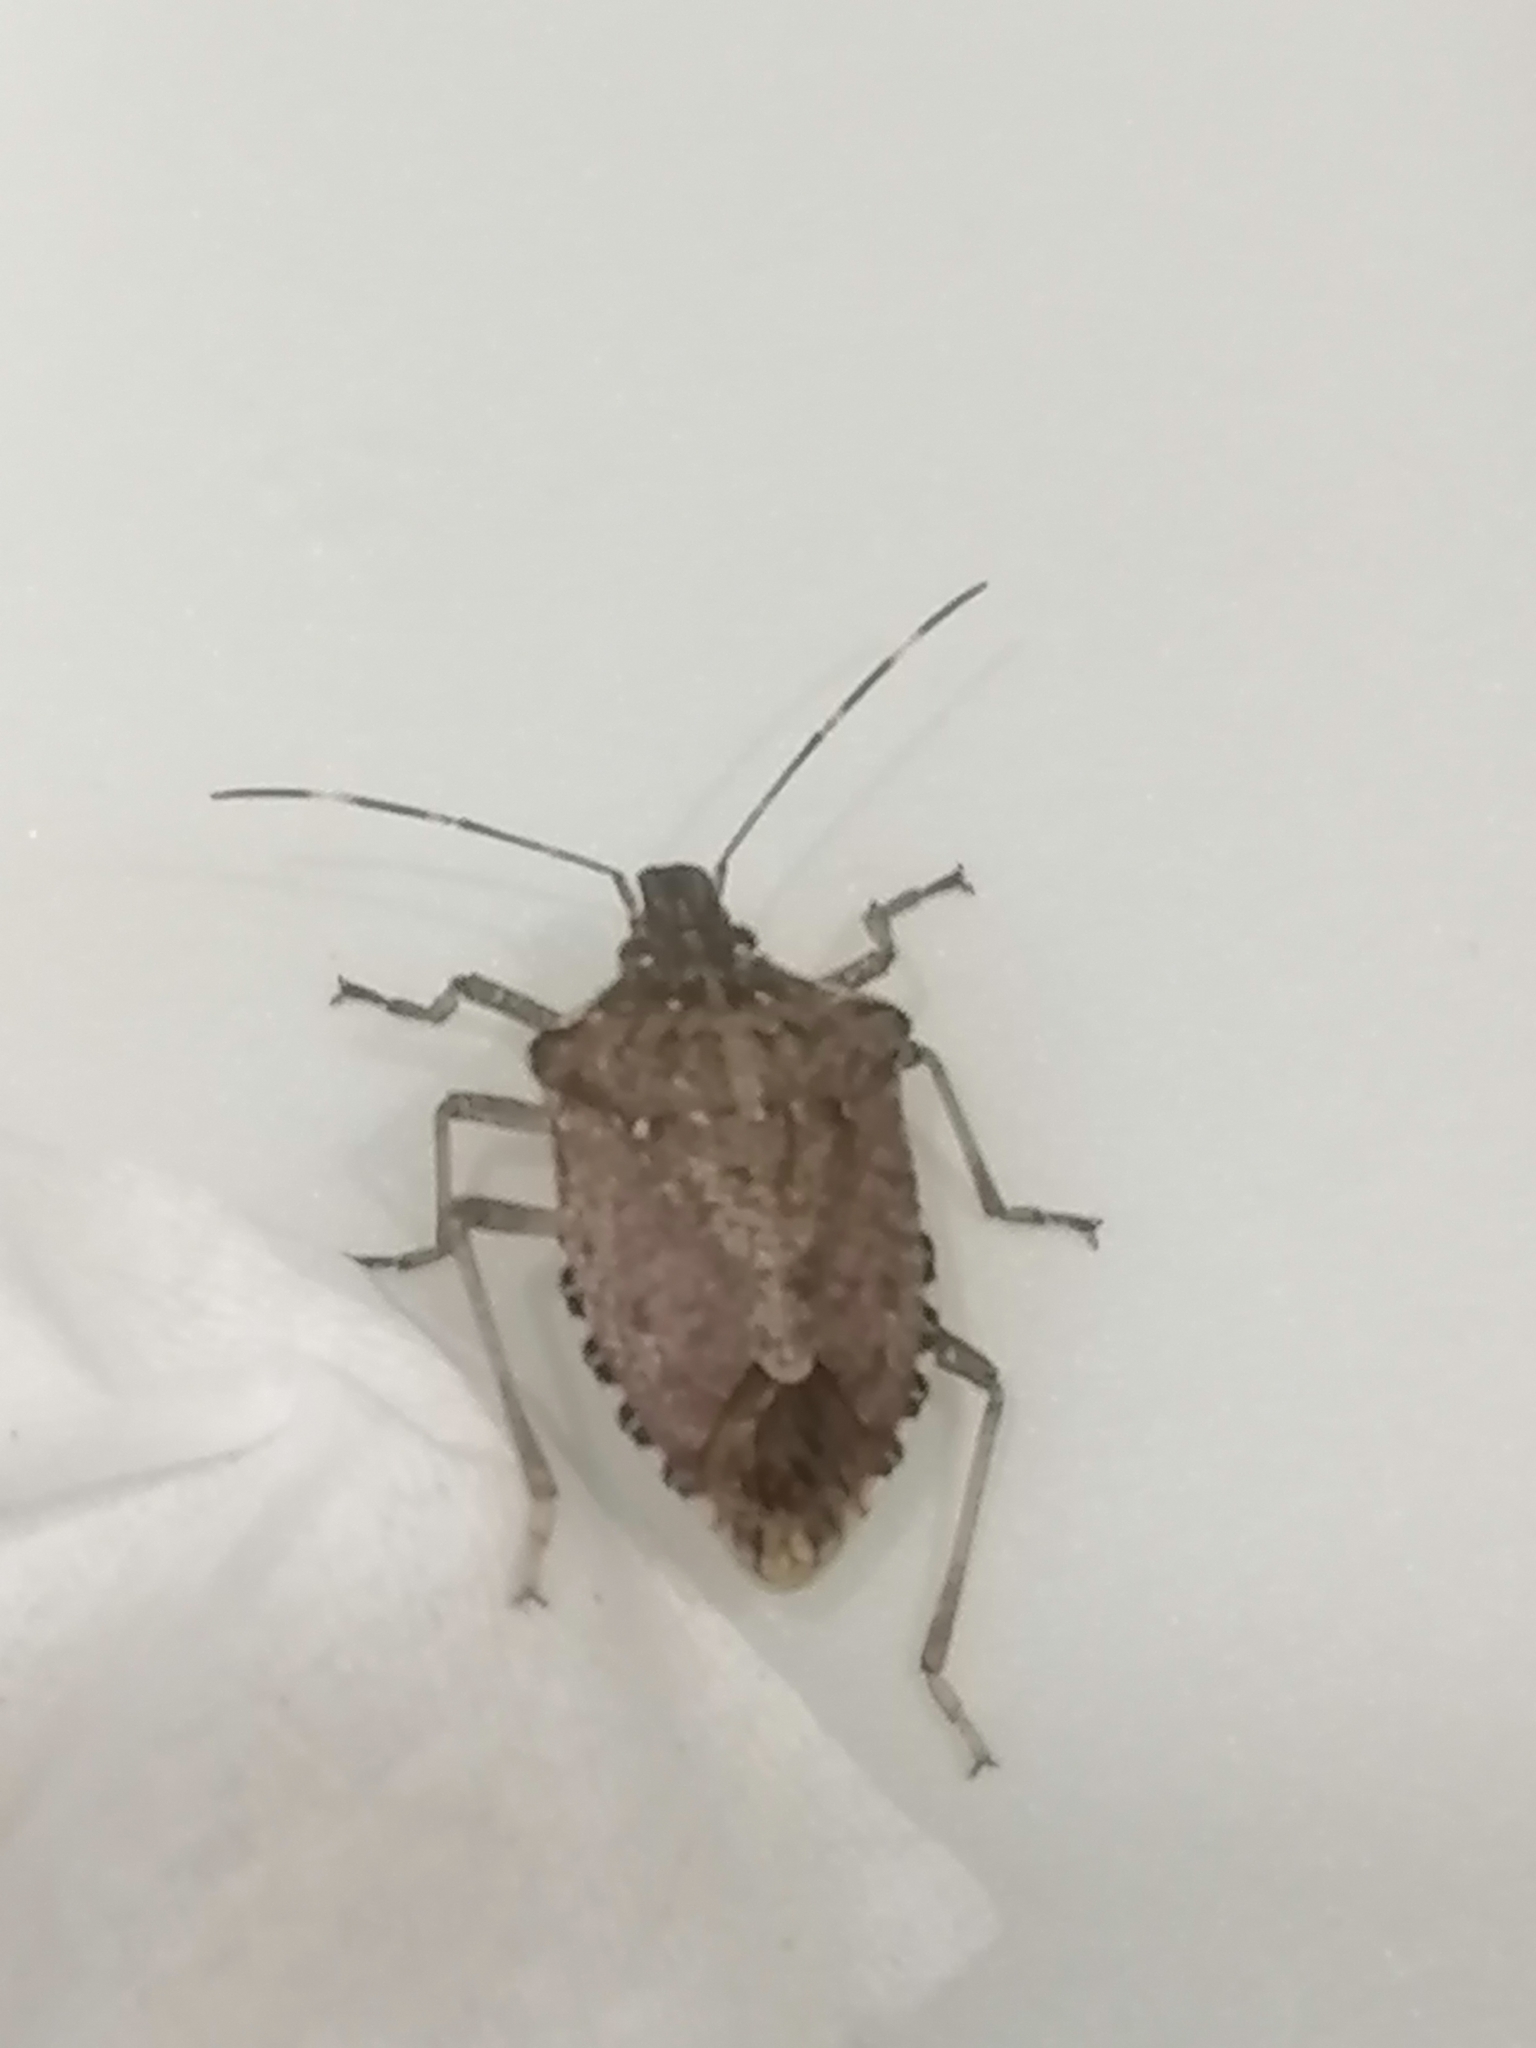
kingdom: Animalia
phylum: Arthropoda
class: Insecta
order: Hemiptera
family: Pentatomidae
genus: Halyomorpha
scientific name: Halyomorpha halys
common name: Brown marmorated stink bug
